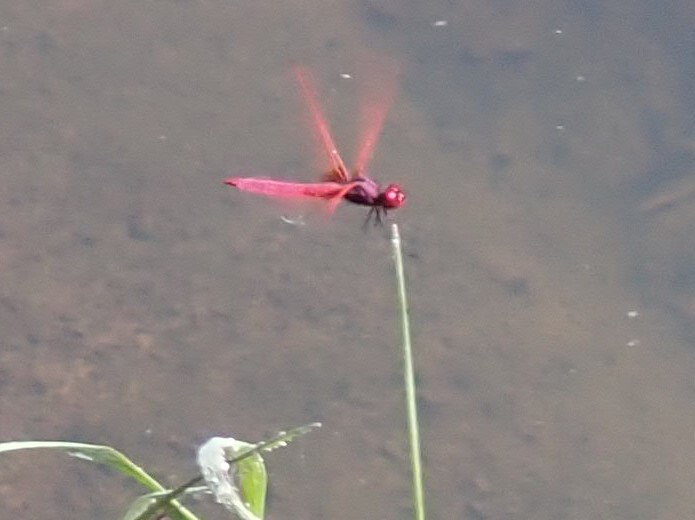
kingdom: Animalia
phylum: Arthropoda
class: Insecta
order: Odonata
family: Libellulidae
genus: Trithemis
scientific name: Trithemis aurora
